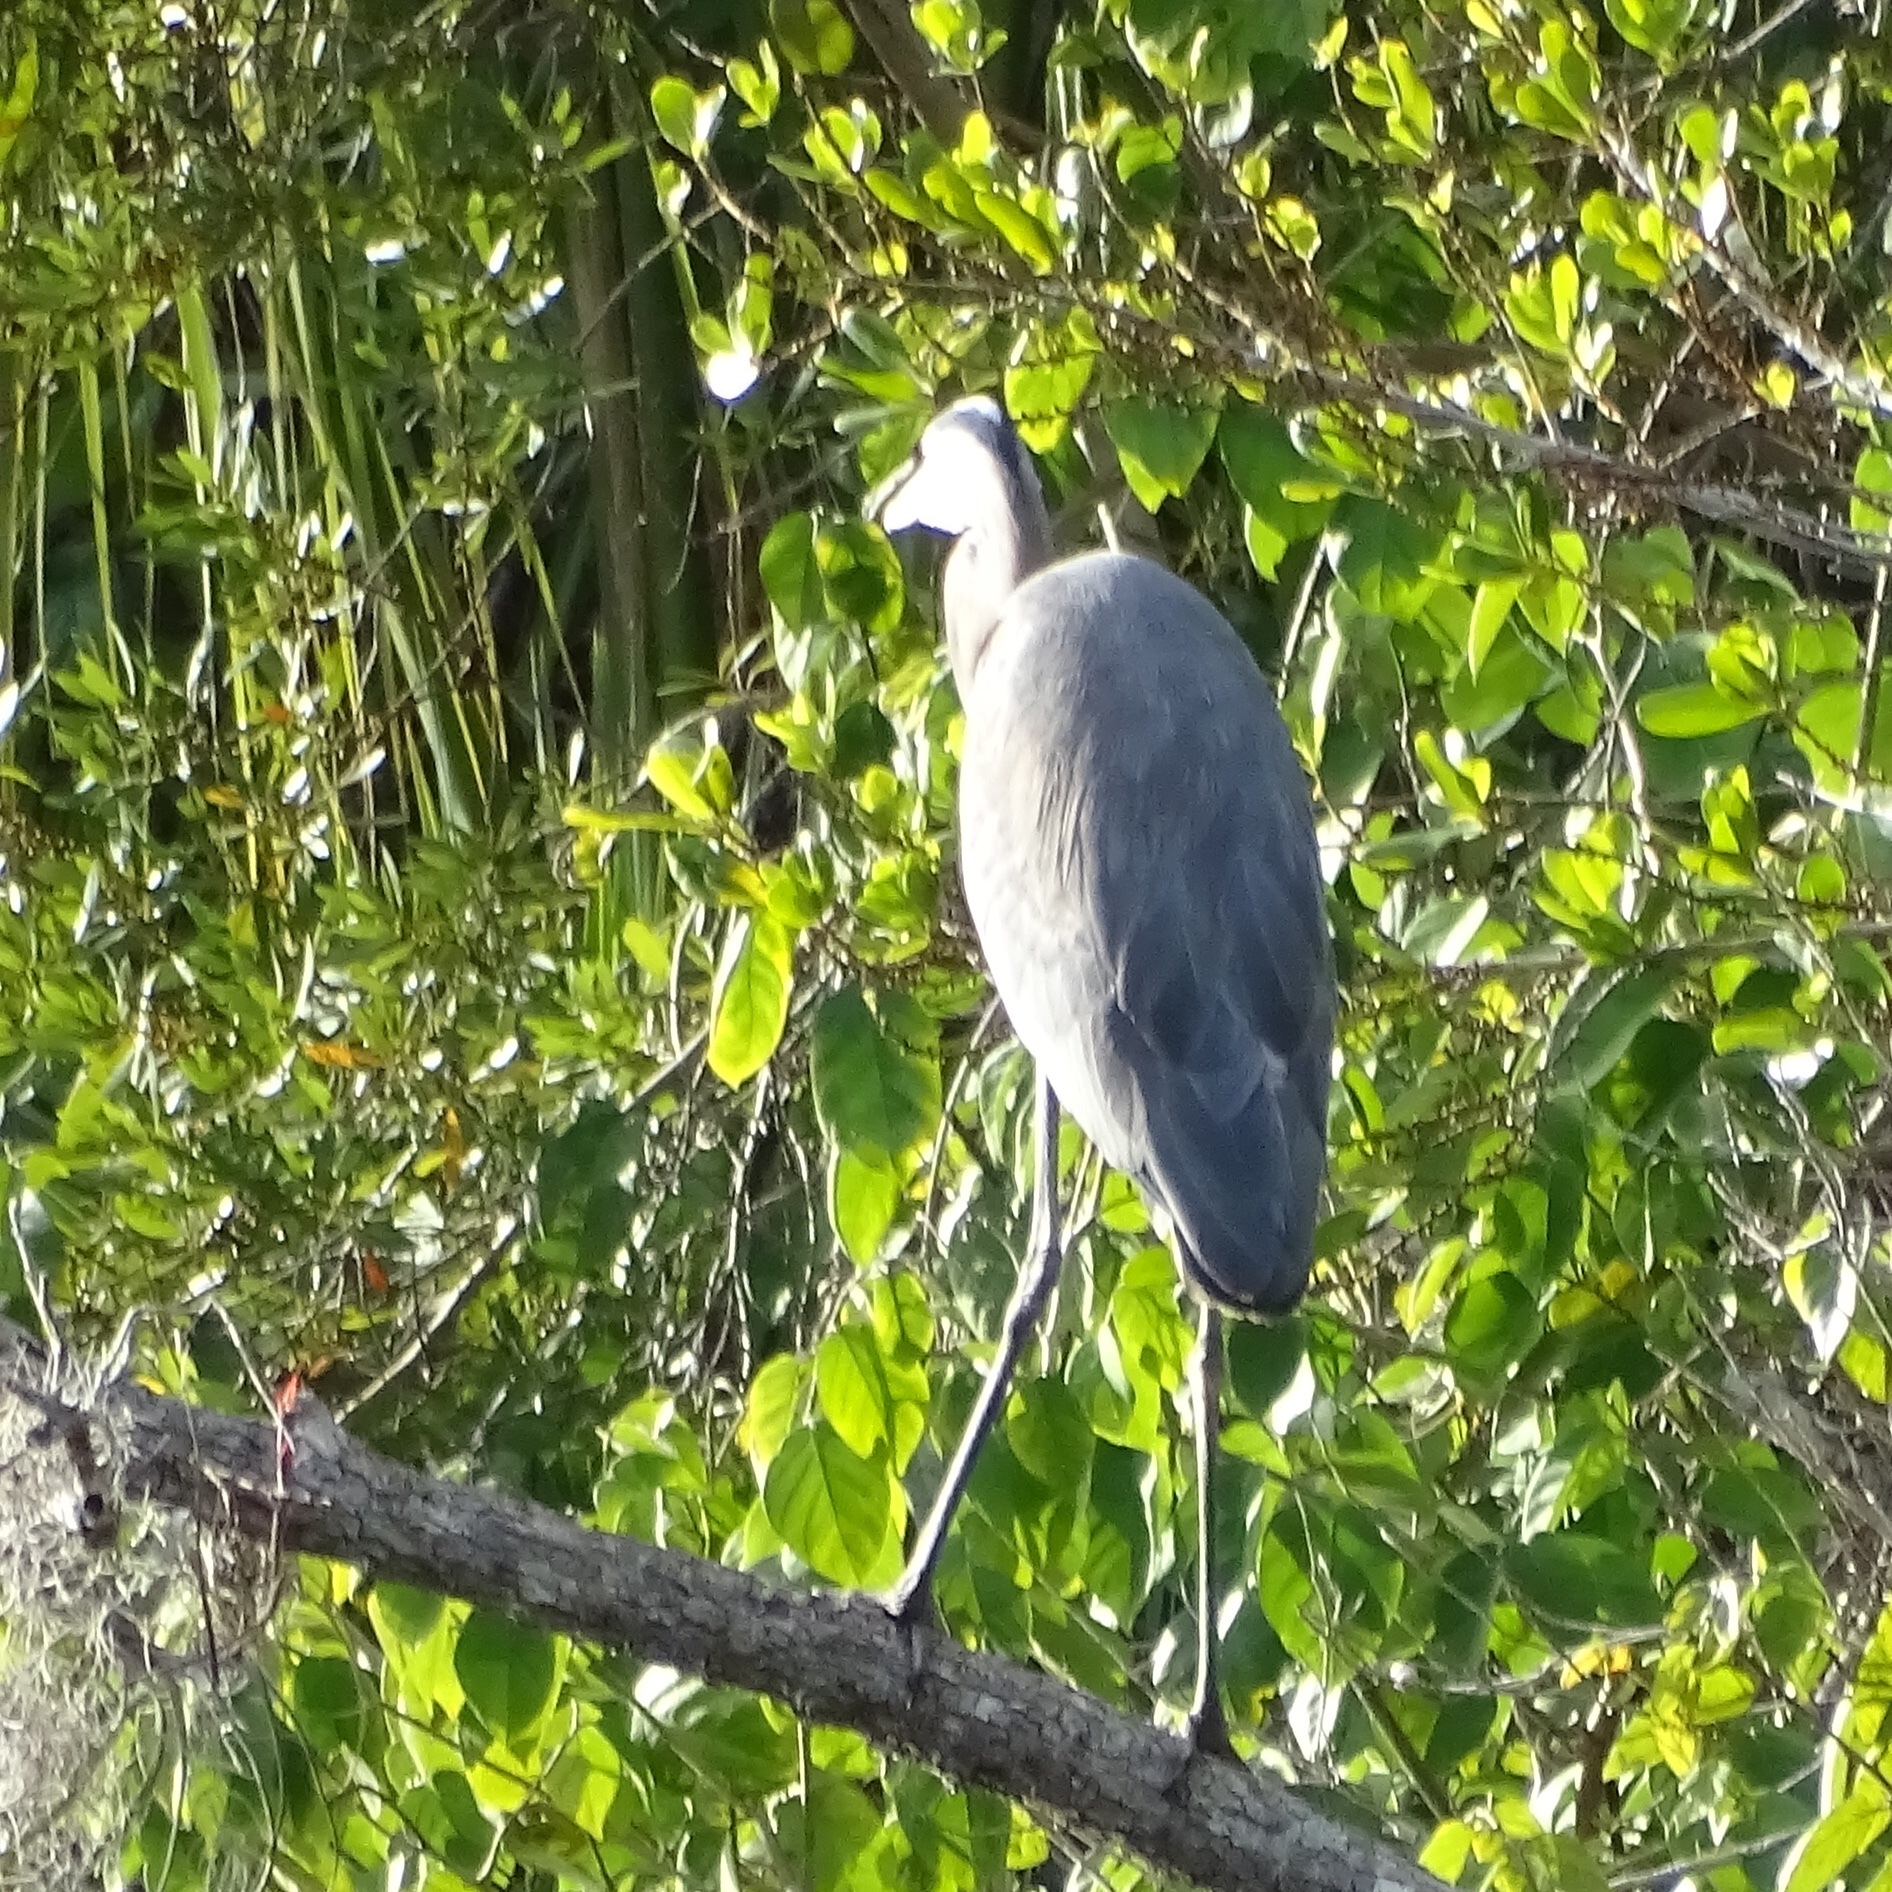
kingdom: Animalia
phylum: Chordata
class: Aves
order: Pelecaniformes
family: Ardeidae
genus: Ardea
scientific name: Ardea herodias
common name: Great blue heron
